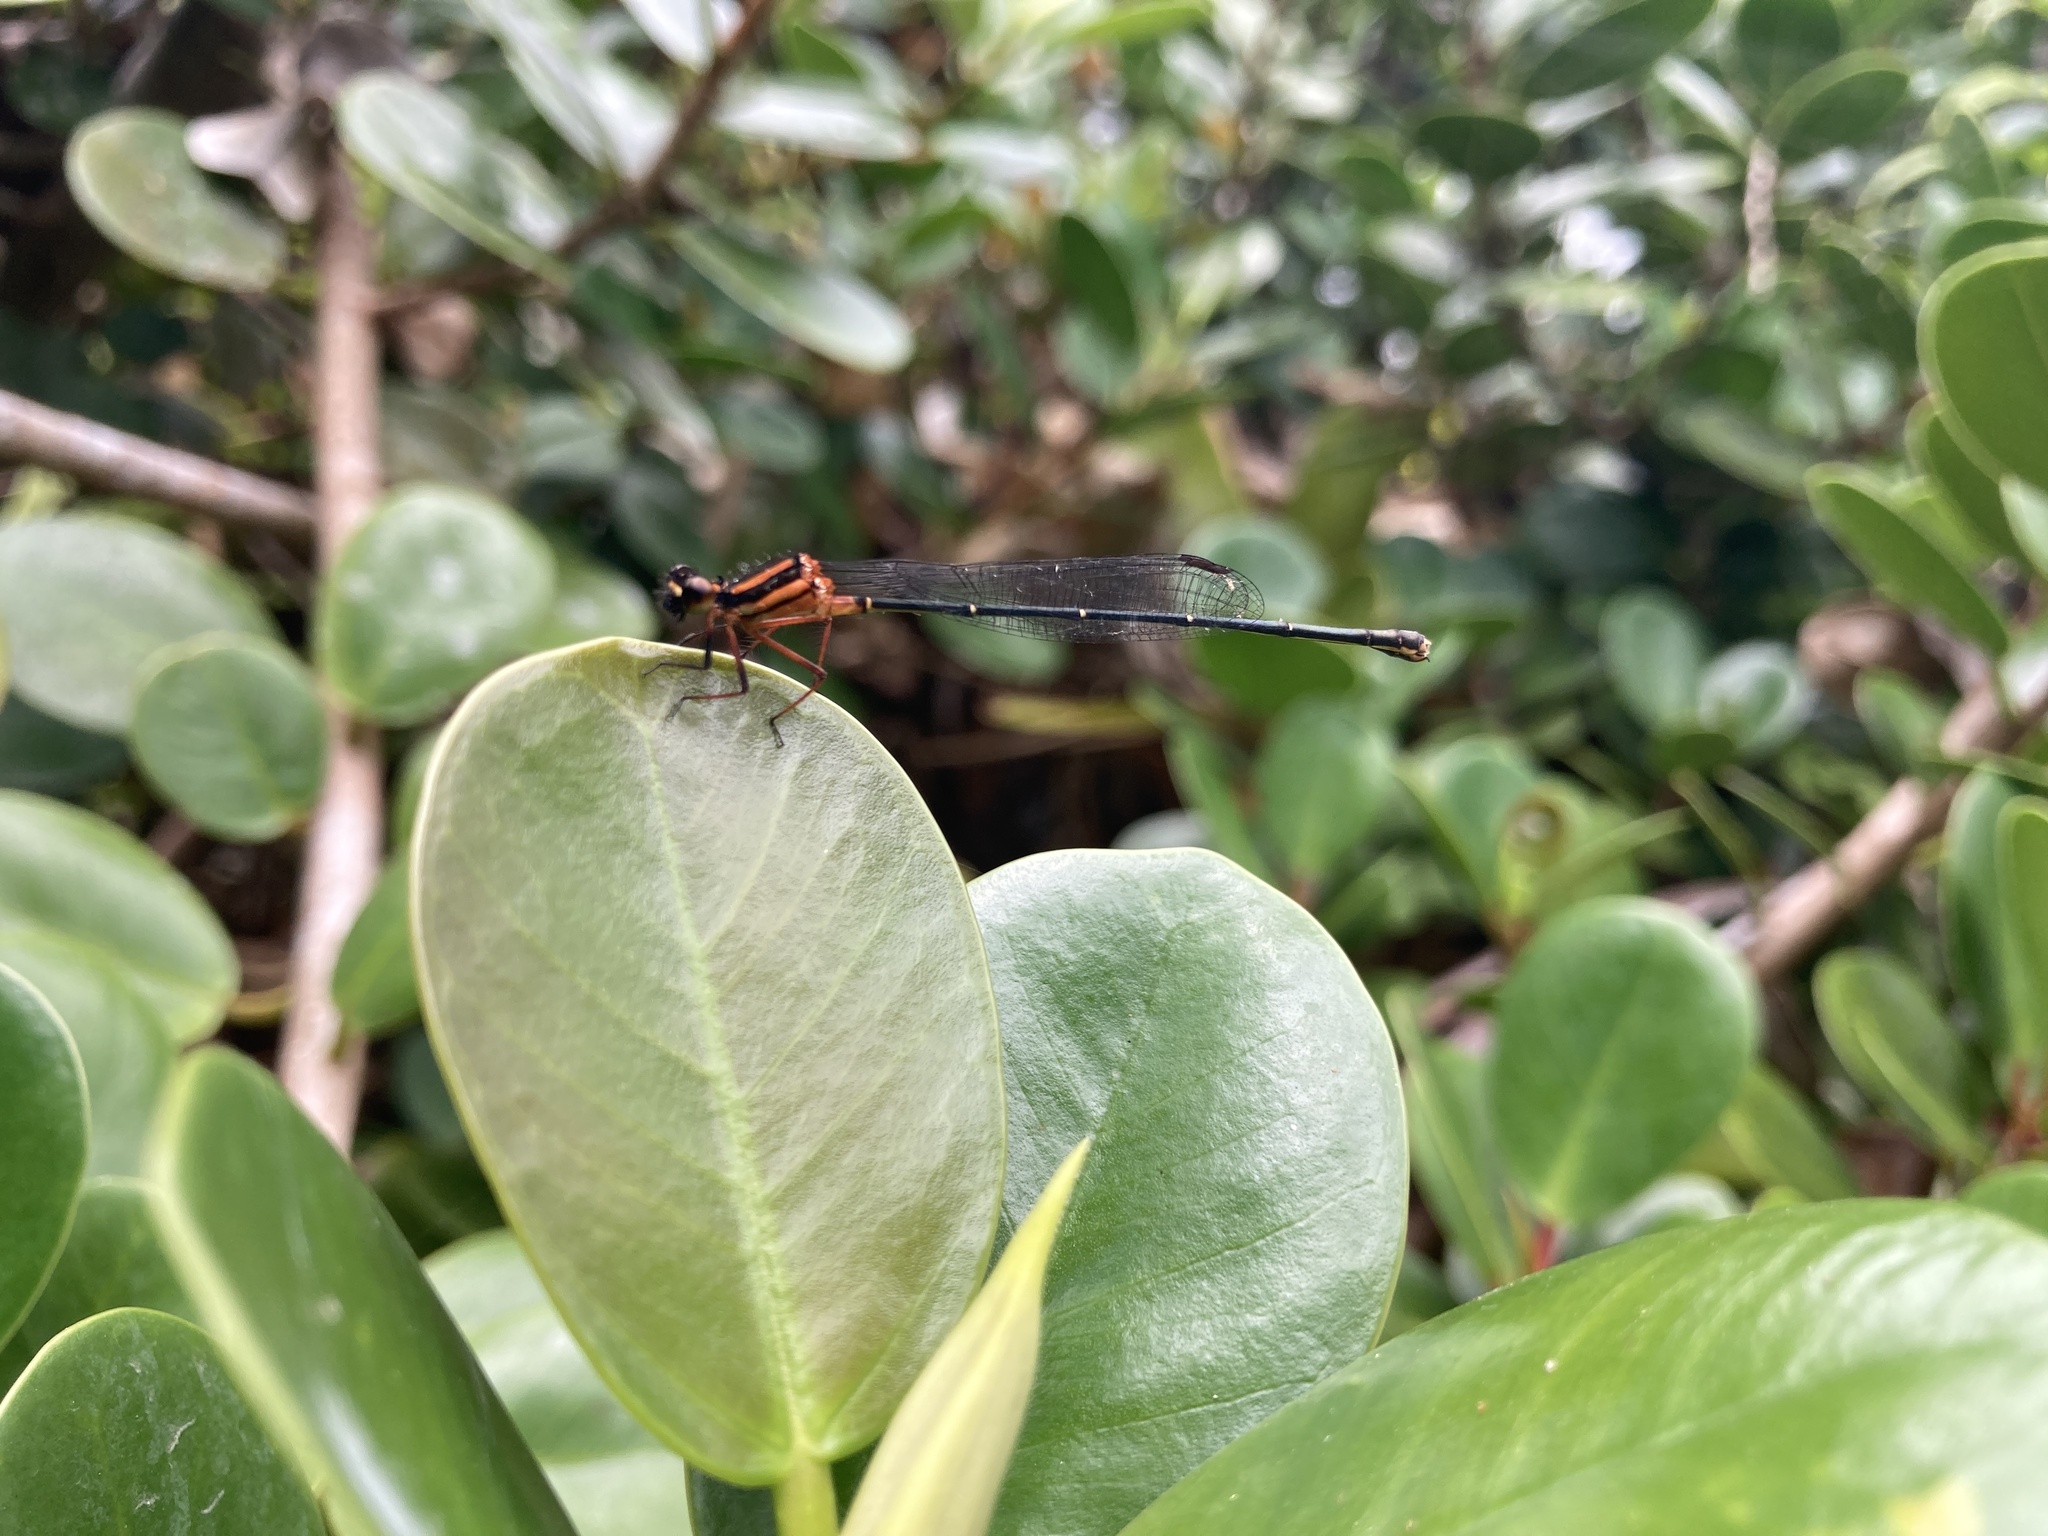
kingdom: Animalia
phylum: Arthropoda
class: Insecta
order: Odonata
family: Platycnemididae
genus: Nososticta
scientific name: Nososticta solida
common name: Orange threadtail
